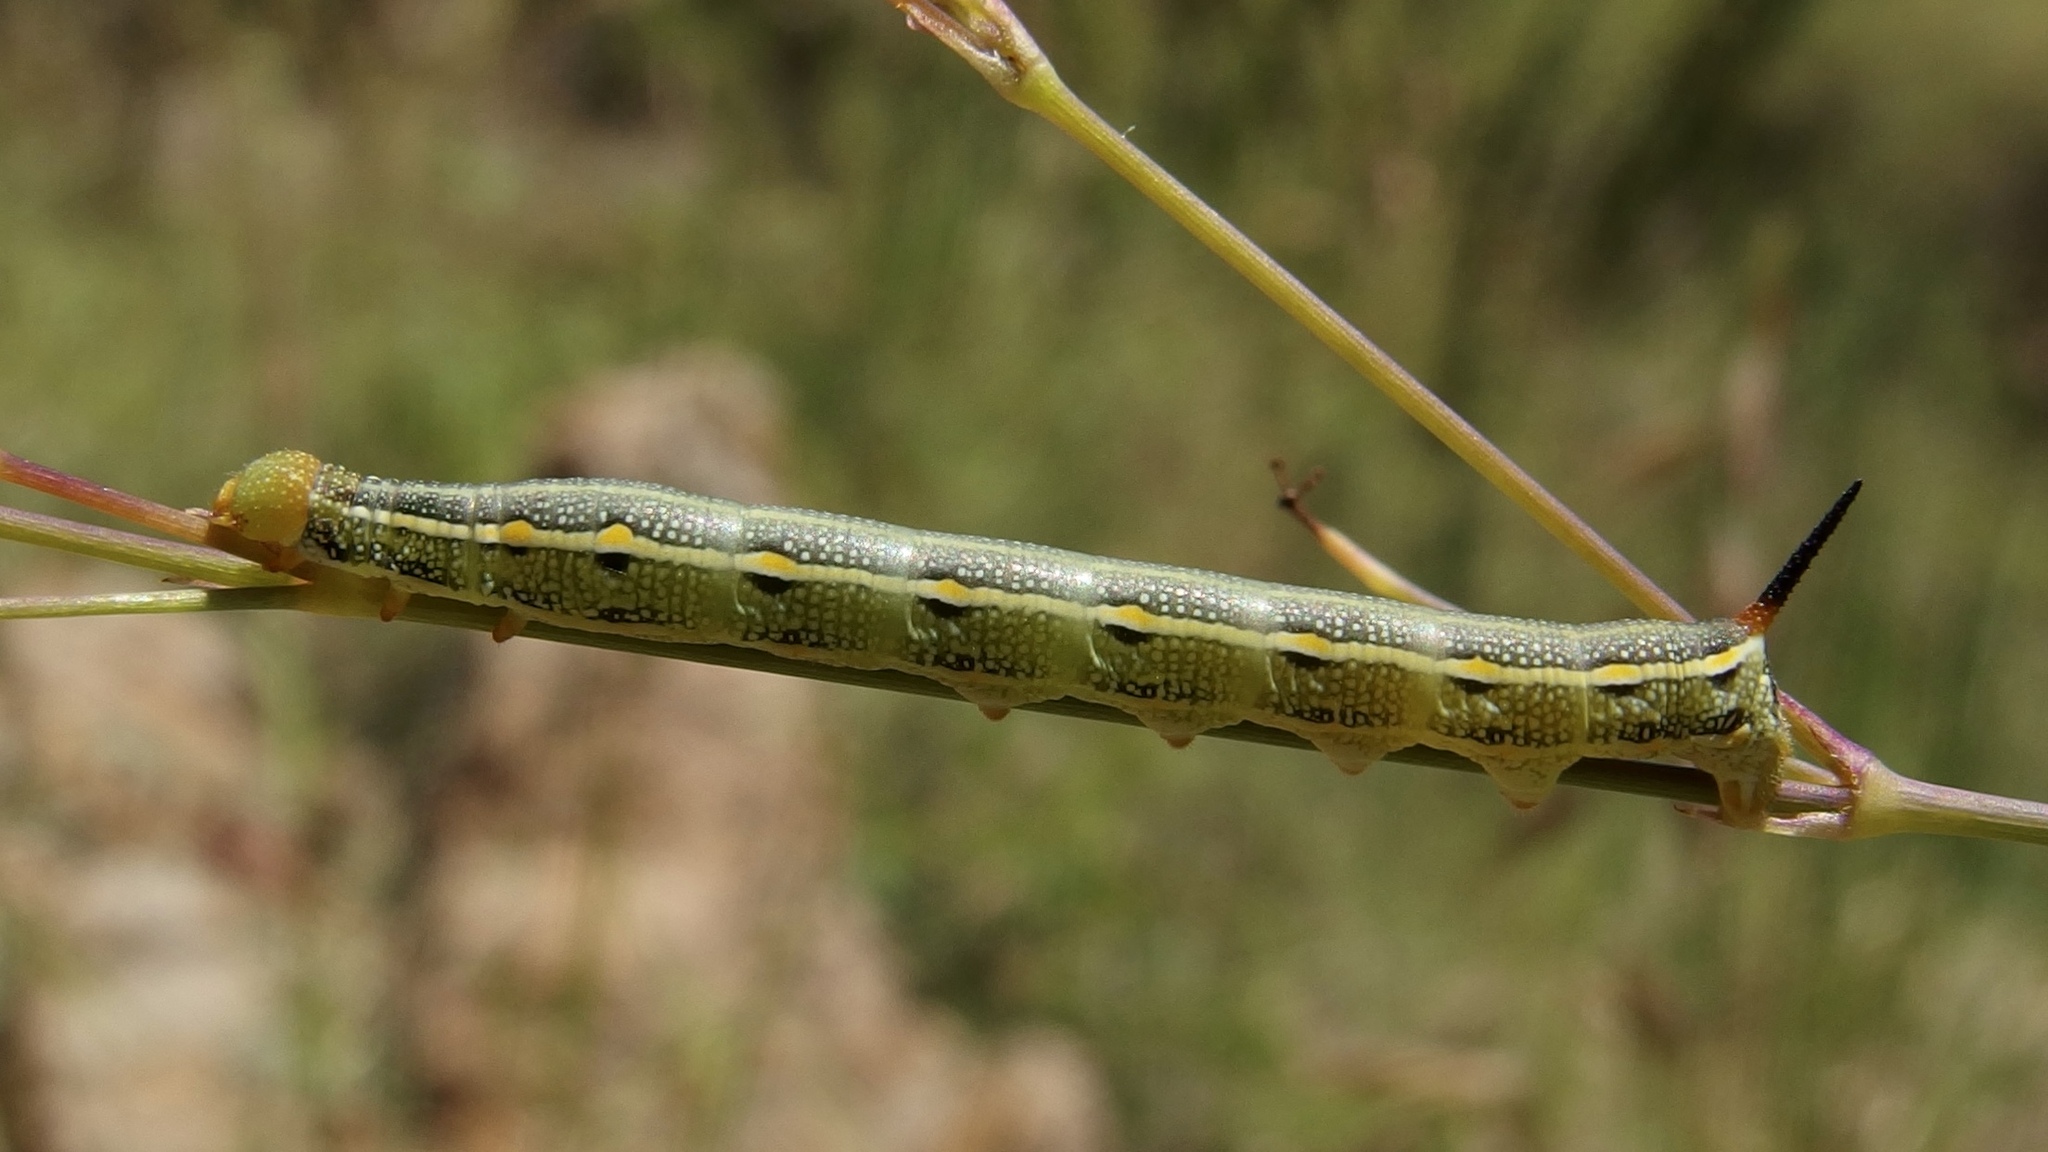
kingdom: Animalia
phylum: Arthropoda
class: Insecta
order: Lepidoptera
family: Sphingidae
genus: Hyles
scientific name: Hyles lineata
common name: White-lined sphinx
